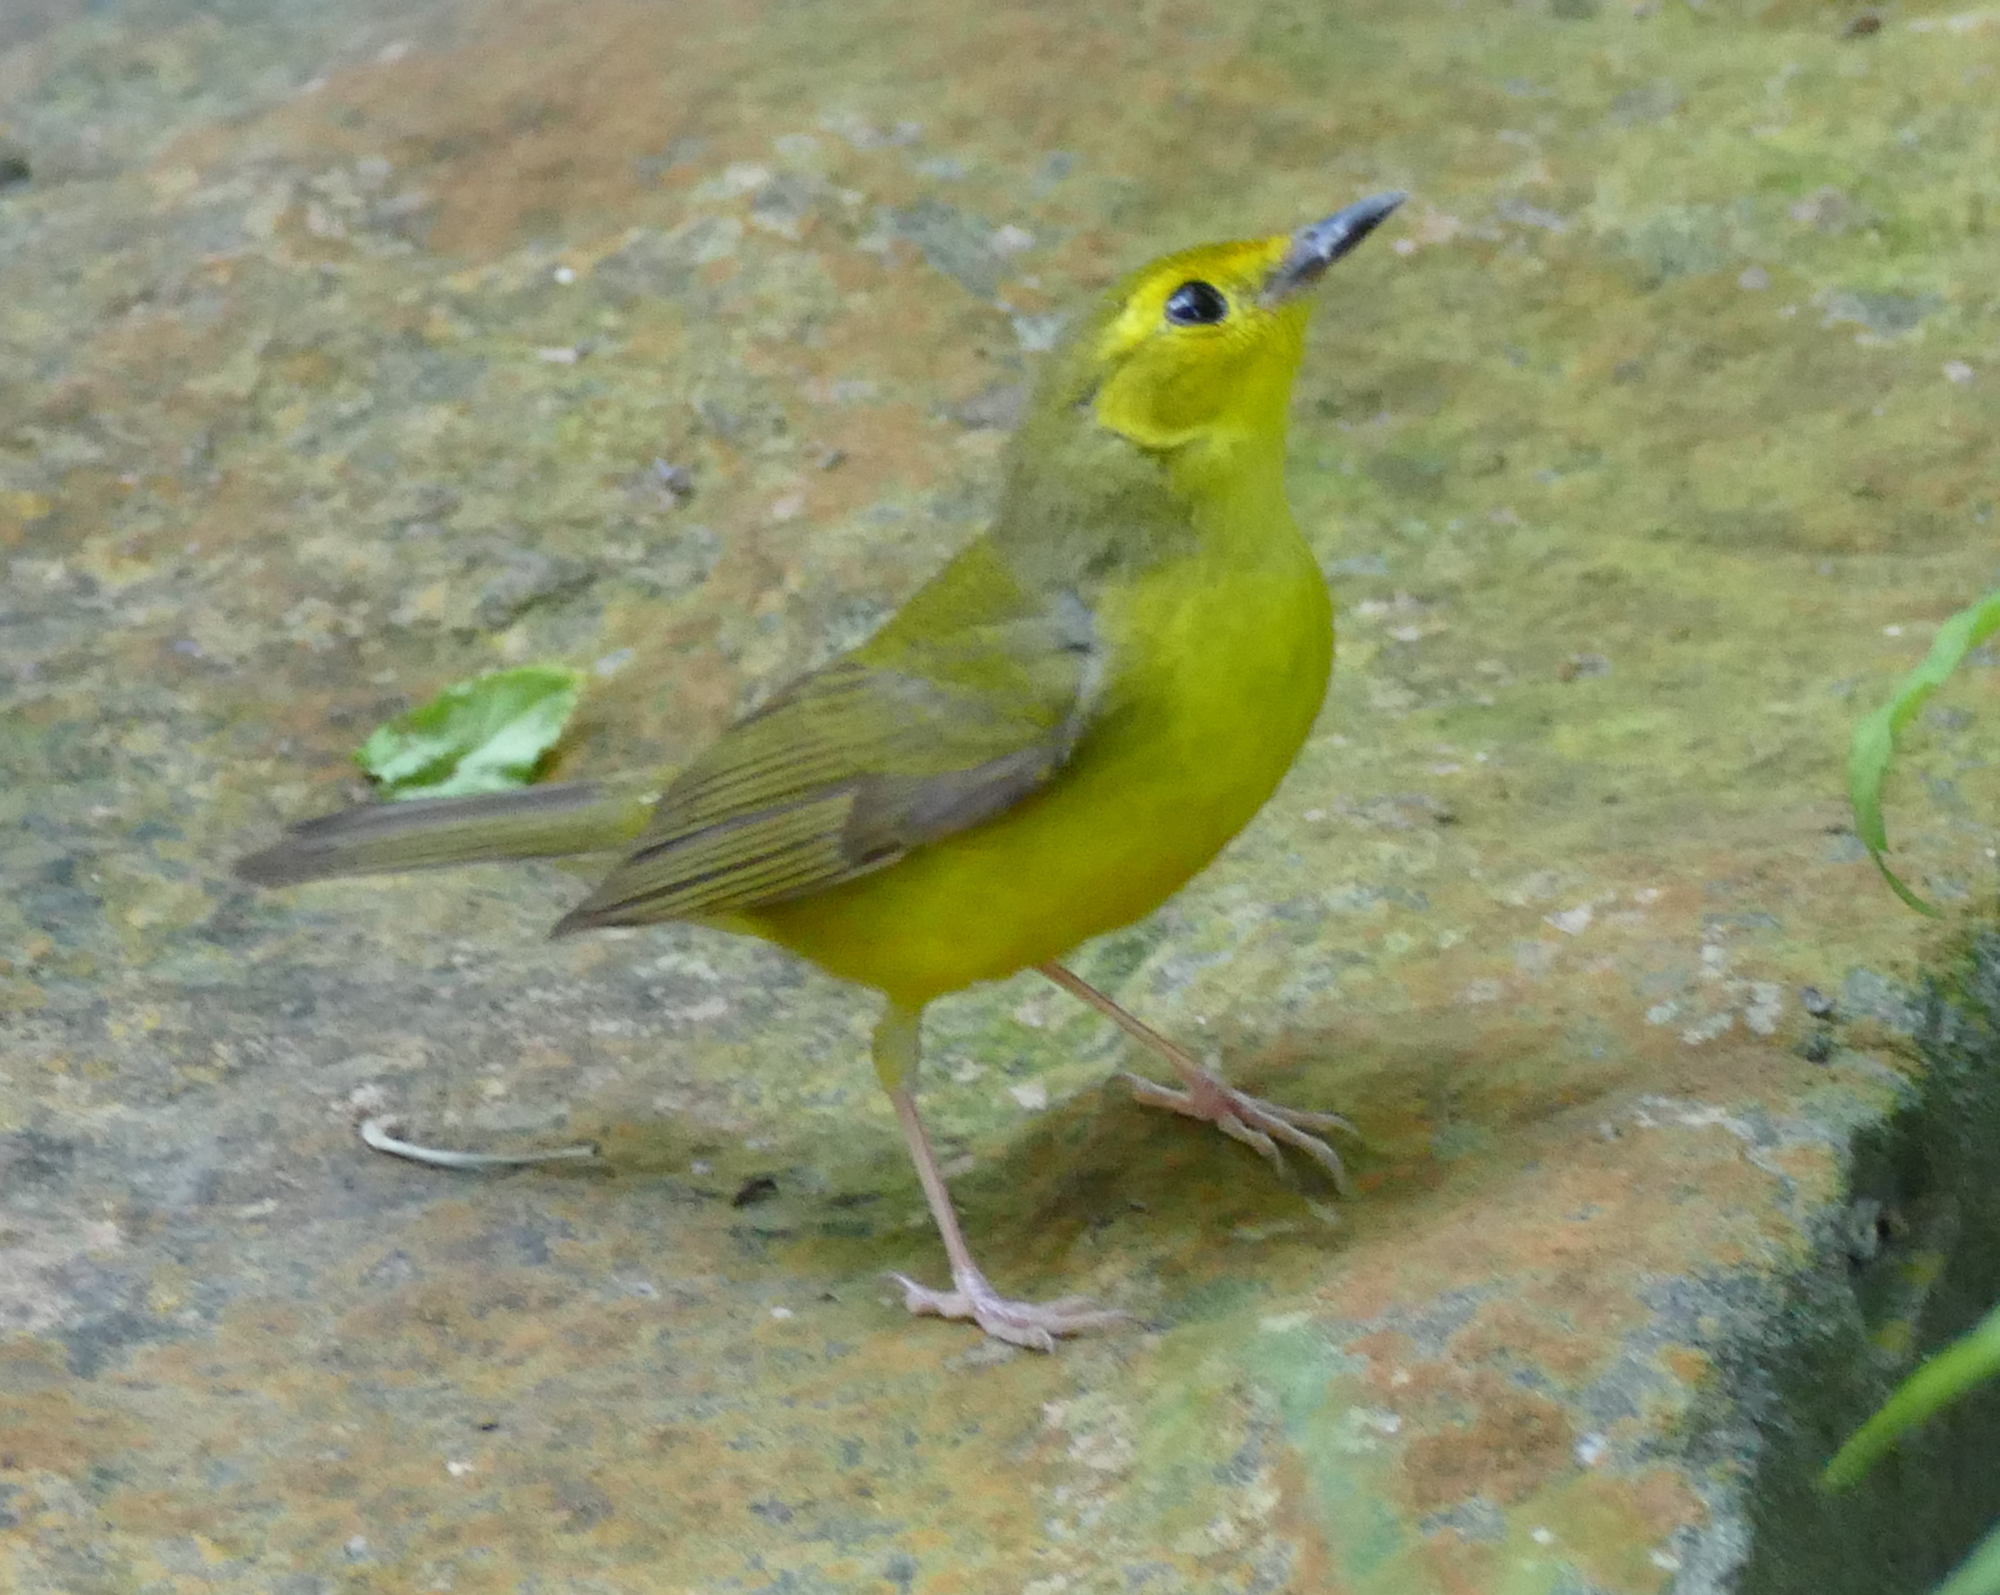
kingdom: Animalia
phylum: Chordata
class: Aves
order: Passeriformes
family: Parulidae
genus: Setophaga
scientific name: Setophaga citrina
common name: Hooded warbler
